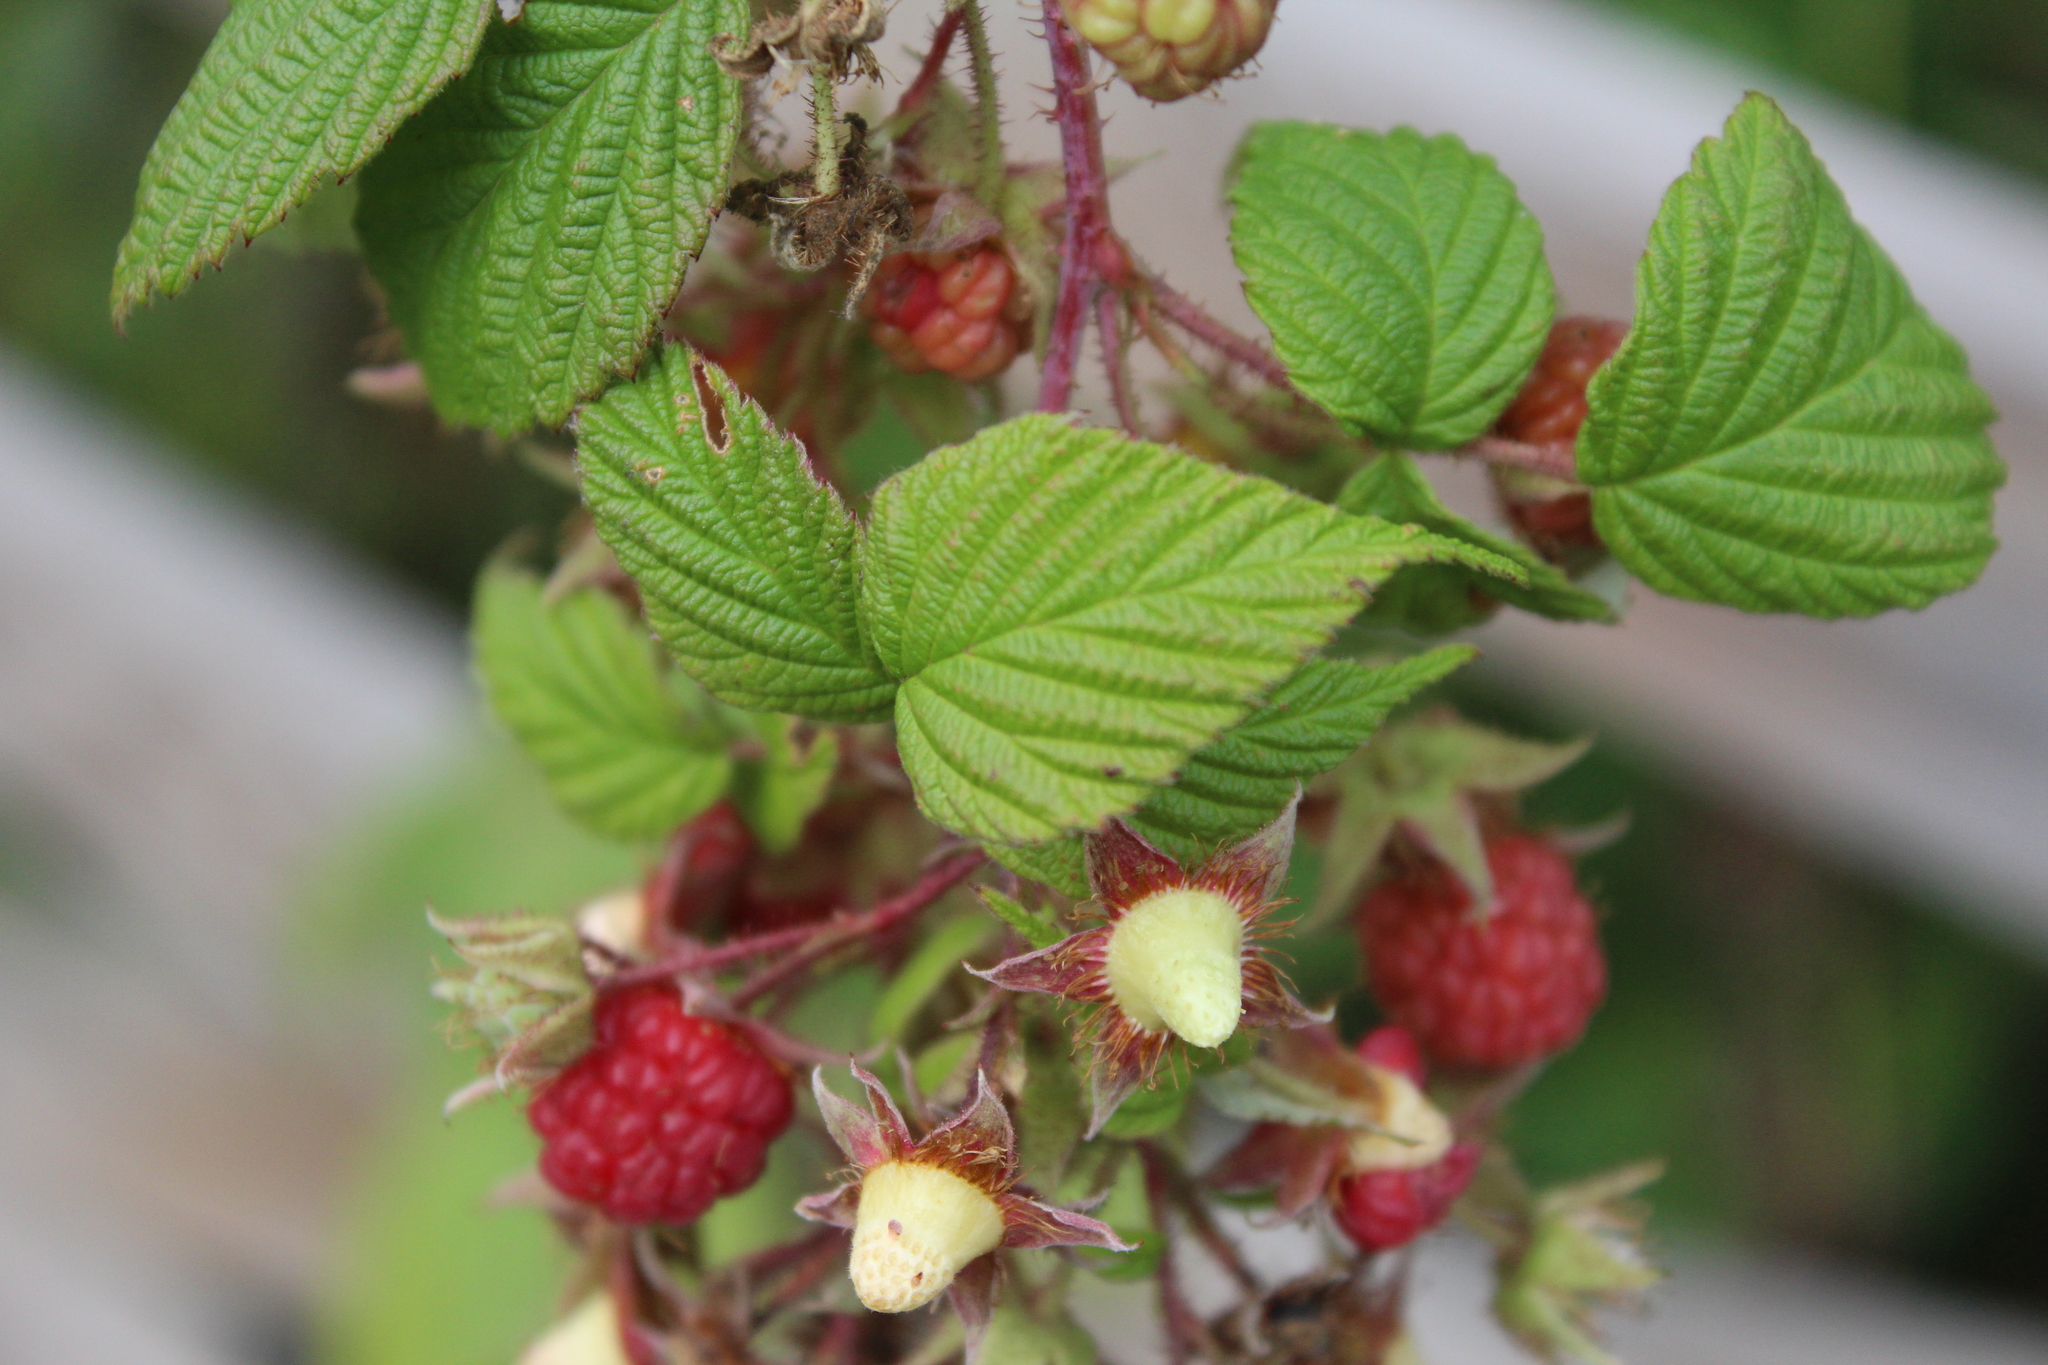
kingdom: Plantae
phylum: Tracheophyta
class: Magnoliopsida
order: Rosales
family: Rosaceae
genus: Rubus
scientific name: Rubus idaeus
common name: Raspberry
